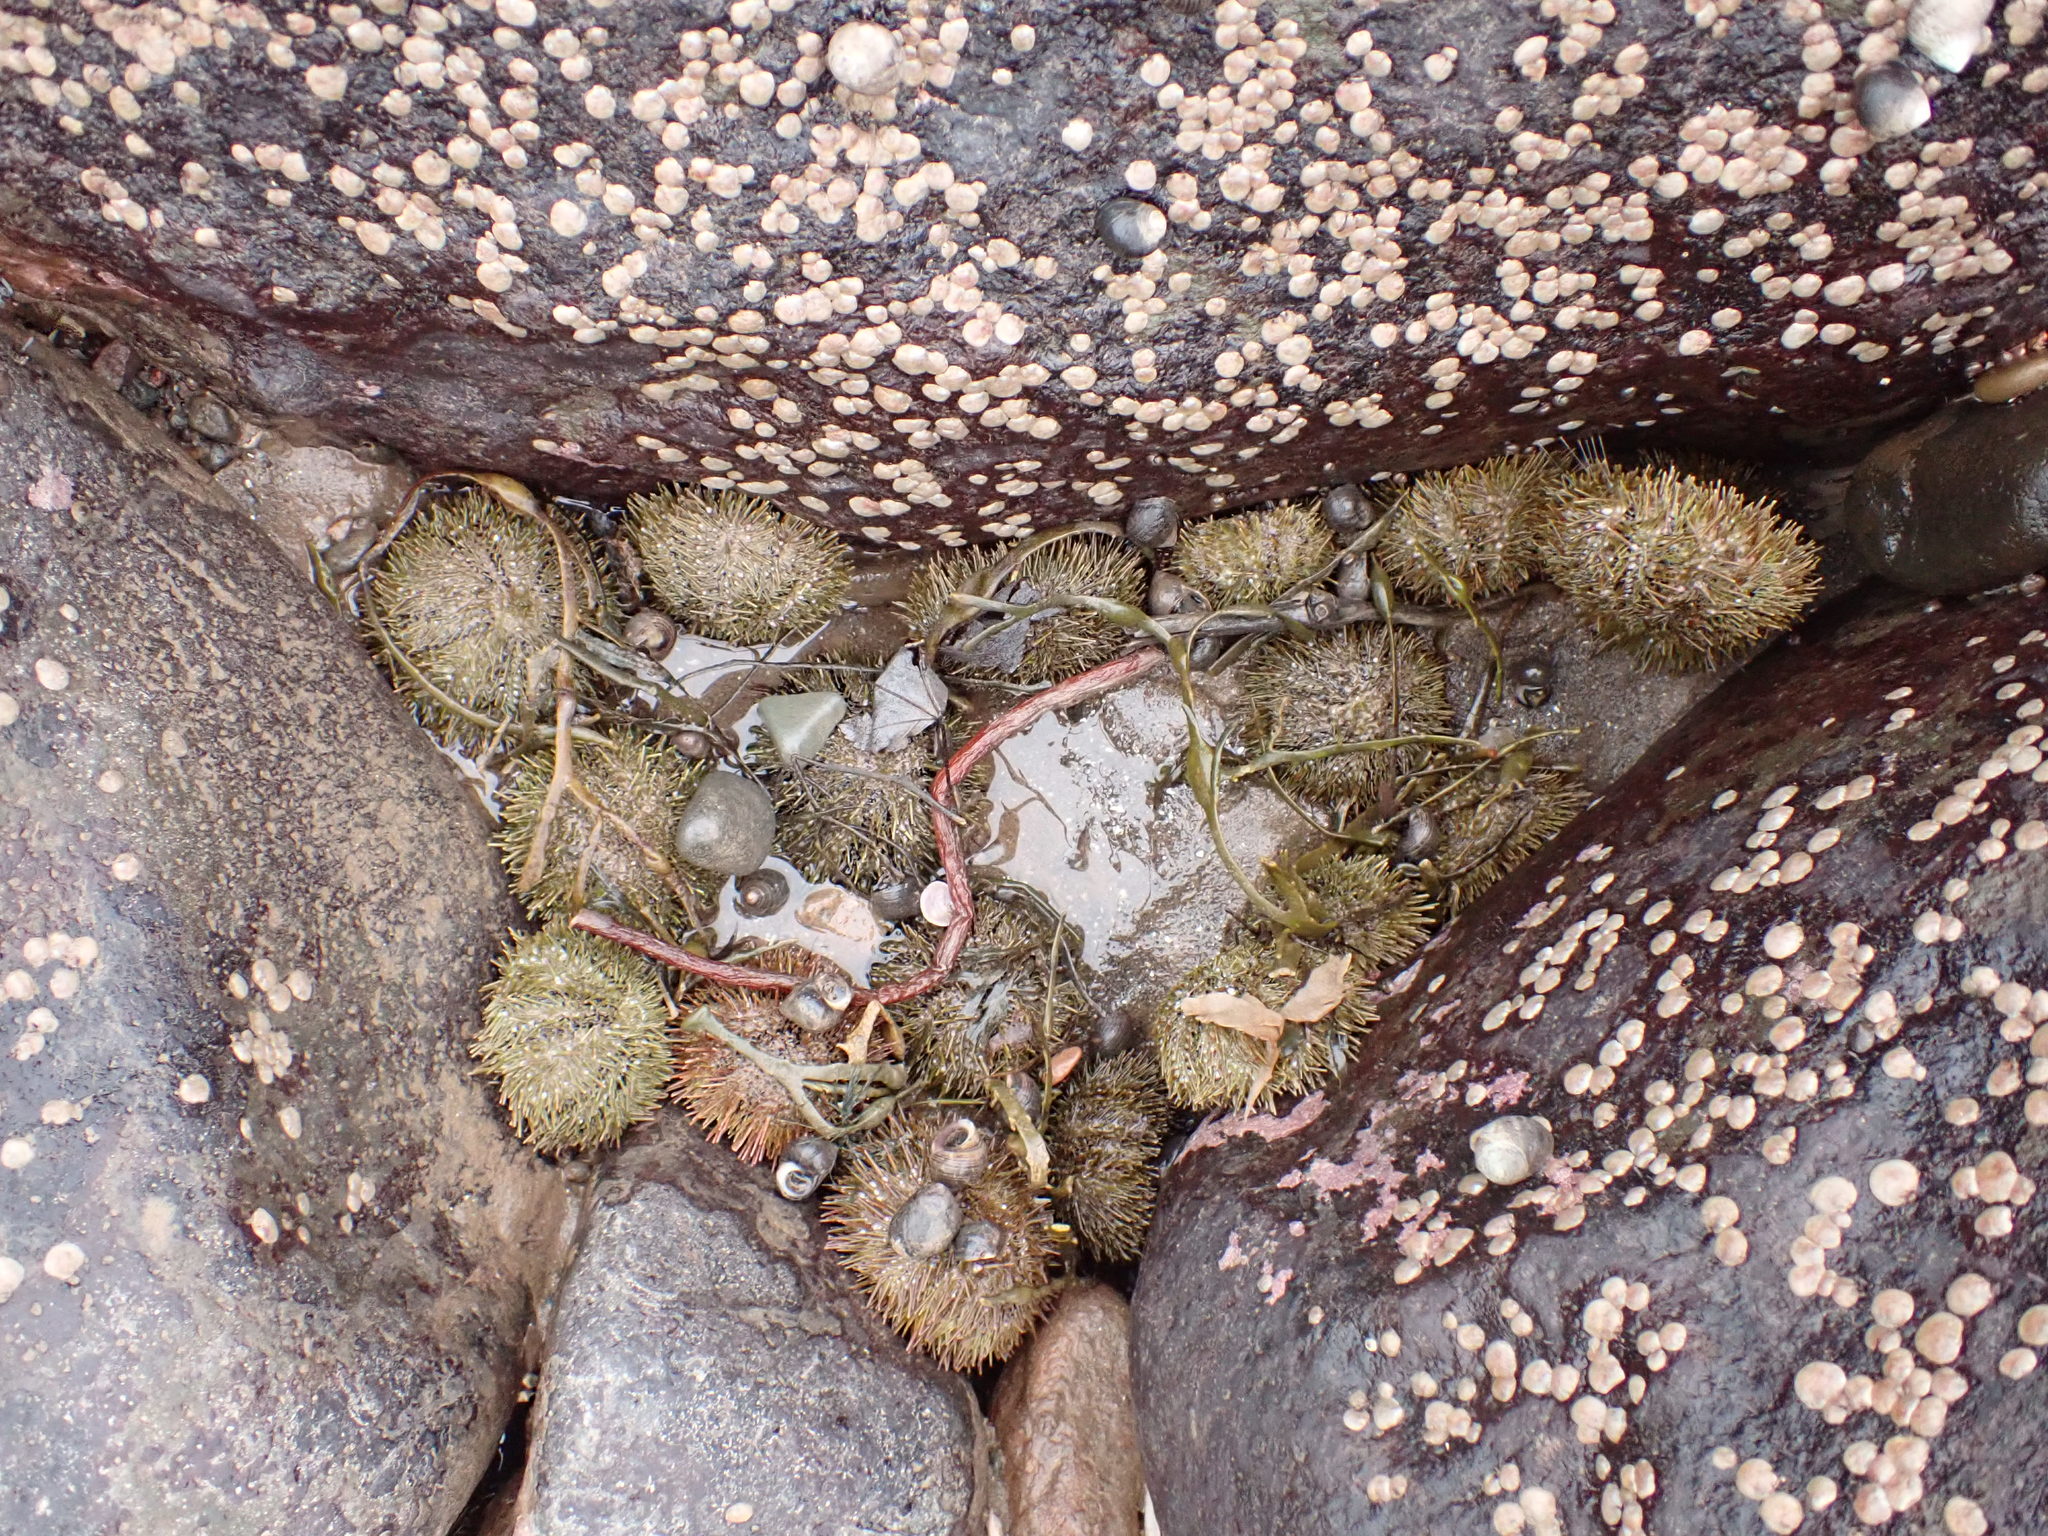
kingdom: Animalia
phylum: Echinodermata
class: Echinoidea
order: Camarodonta
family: Strongylocentrotidae
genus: Strongylocentrotus
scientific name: Strongylocentrotus droebachiensis
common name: Northern sea urchin
